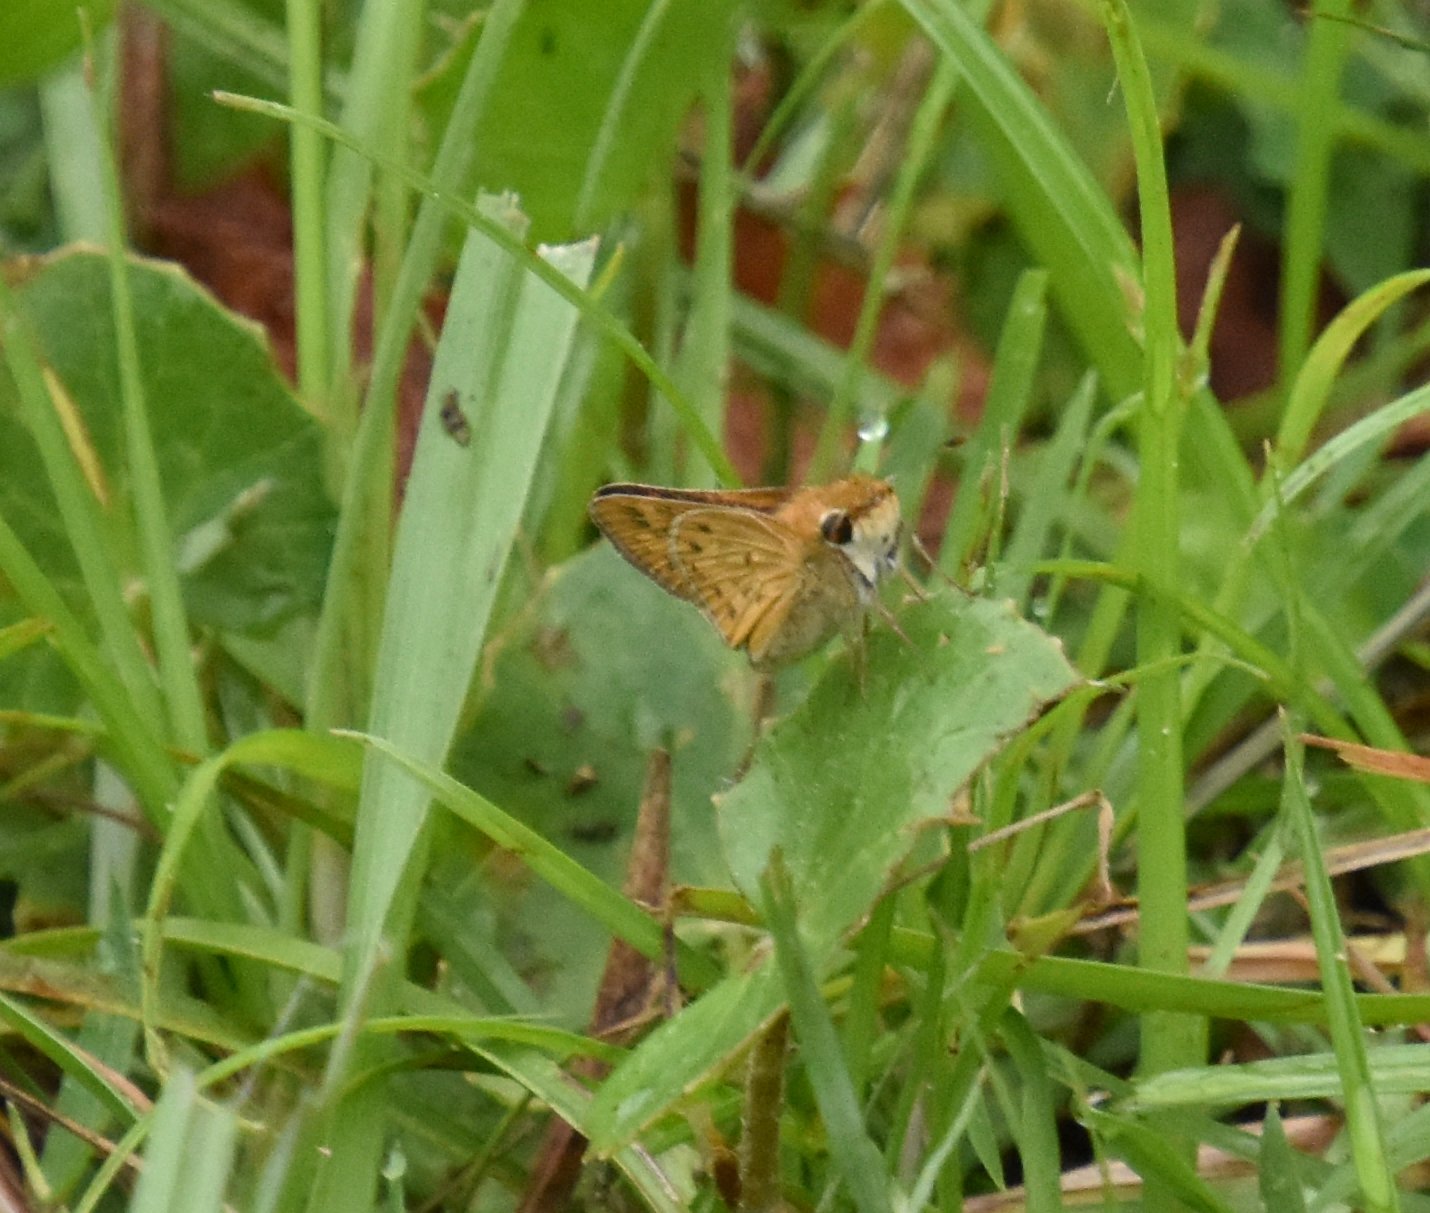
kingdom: Animalia
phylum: Arthropoda
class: Insecta
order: Lepidoptera
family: Hesperiidae
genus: Hylephila
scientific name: Hylephila phyleus
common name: Fiery skipper
